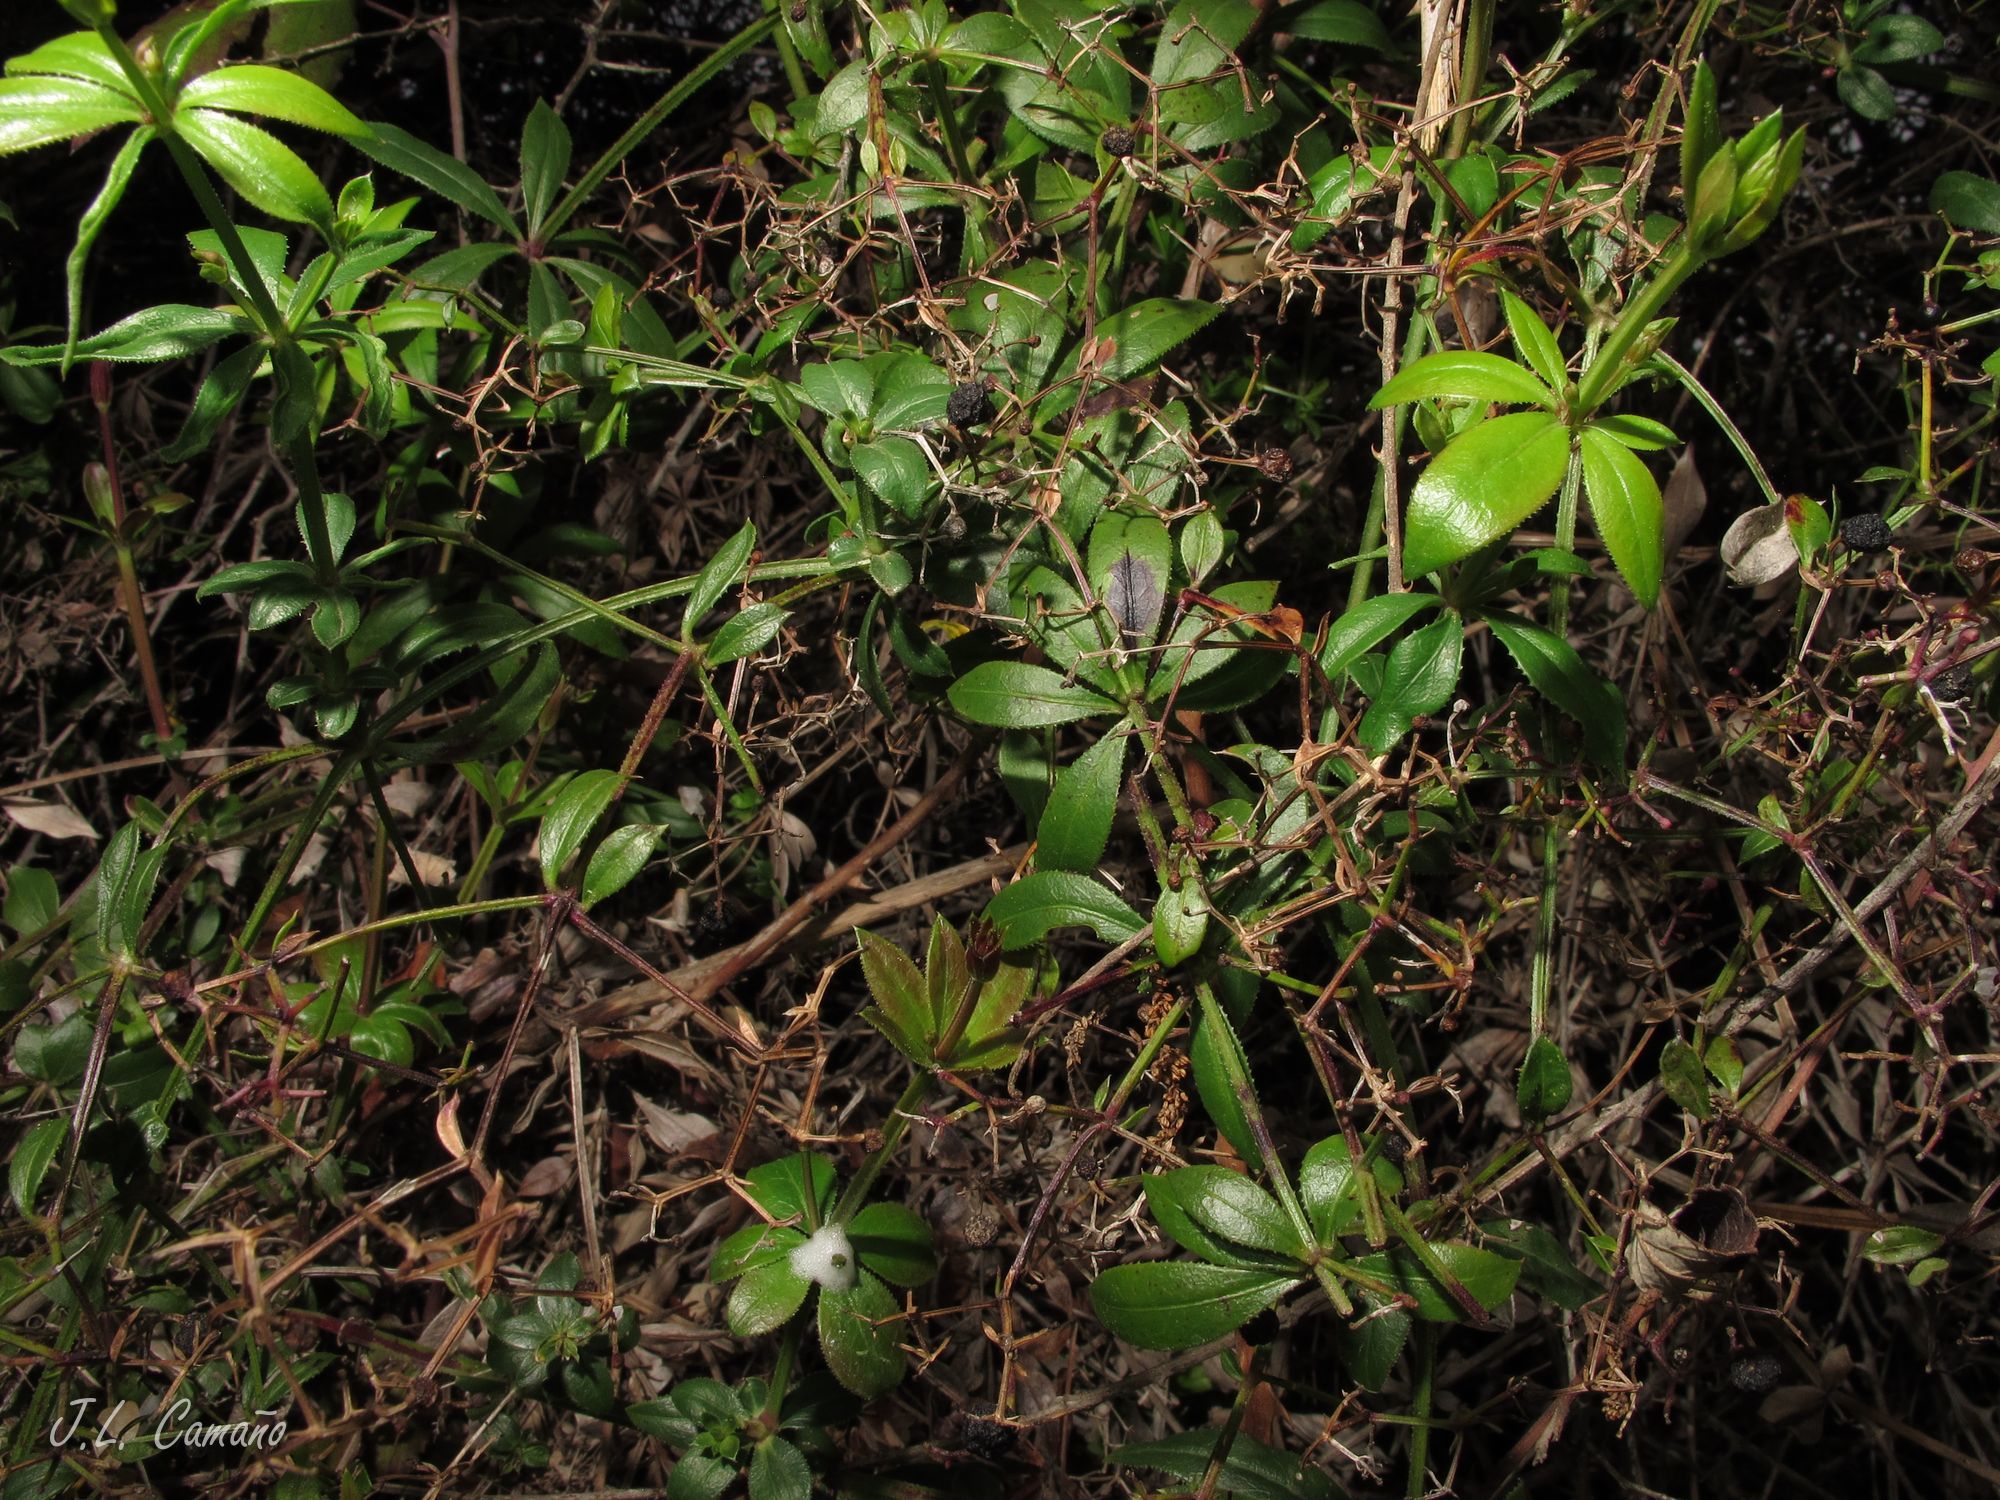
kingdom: Plantae
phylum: Tracheophyta
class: Magnoliopsida
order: Gentianales
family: Rubiaceae
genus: Rubia
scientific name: Rubia peregrina
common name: Wild madder
